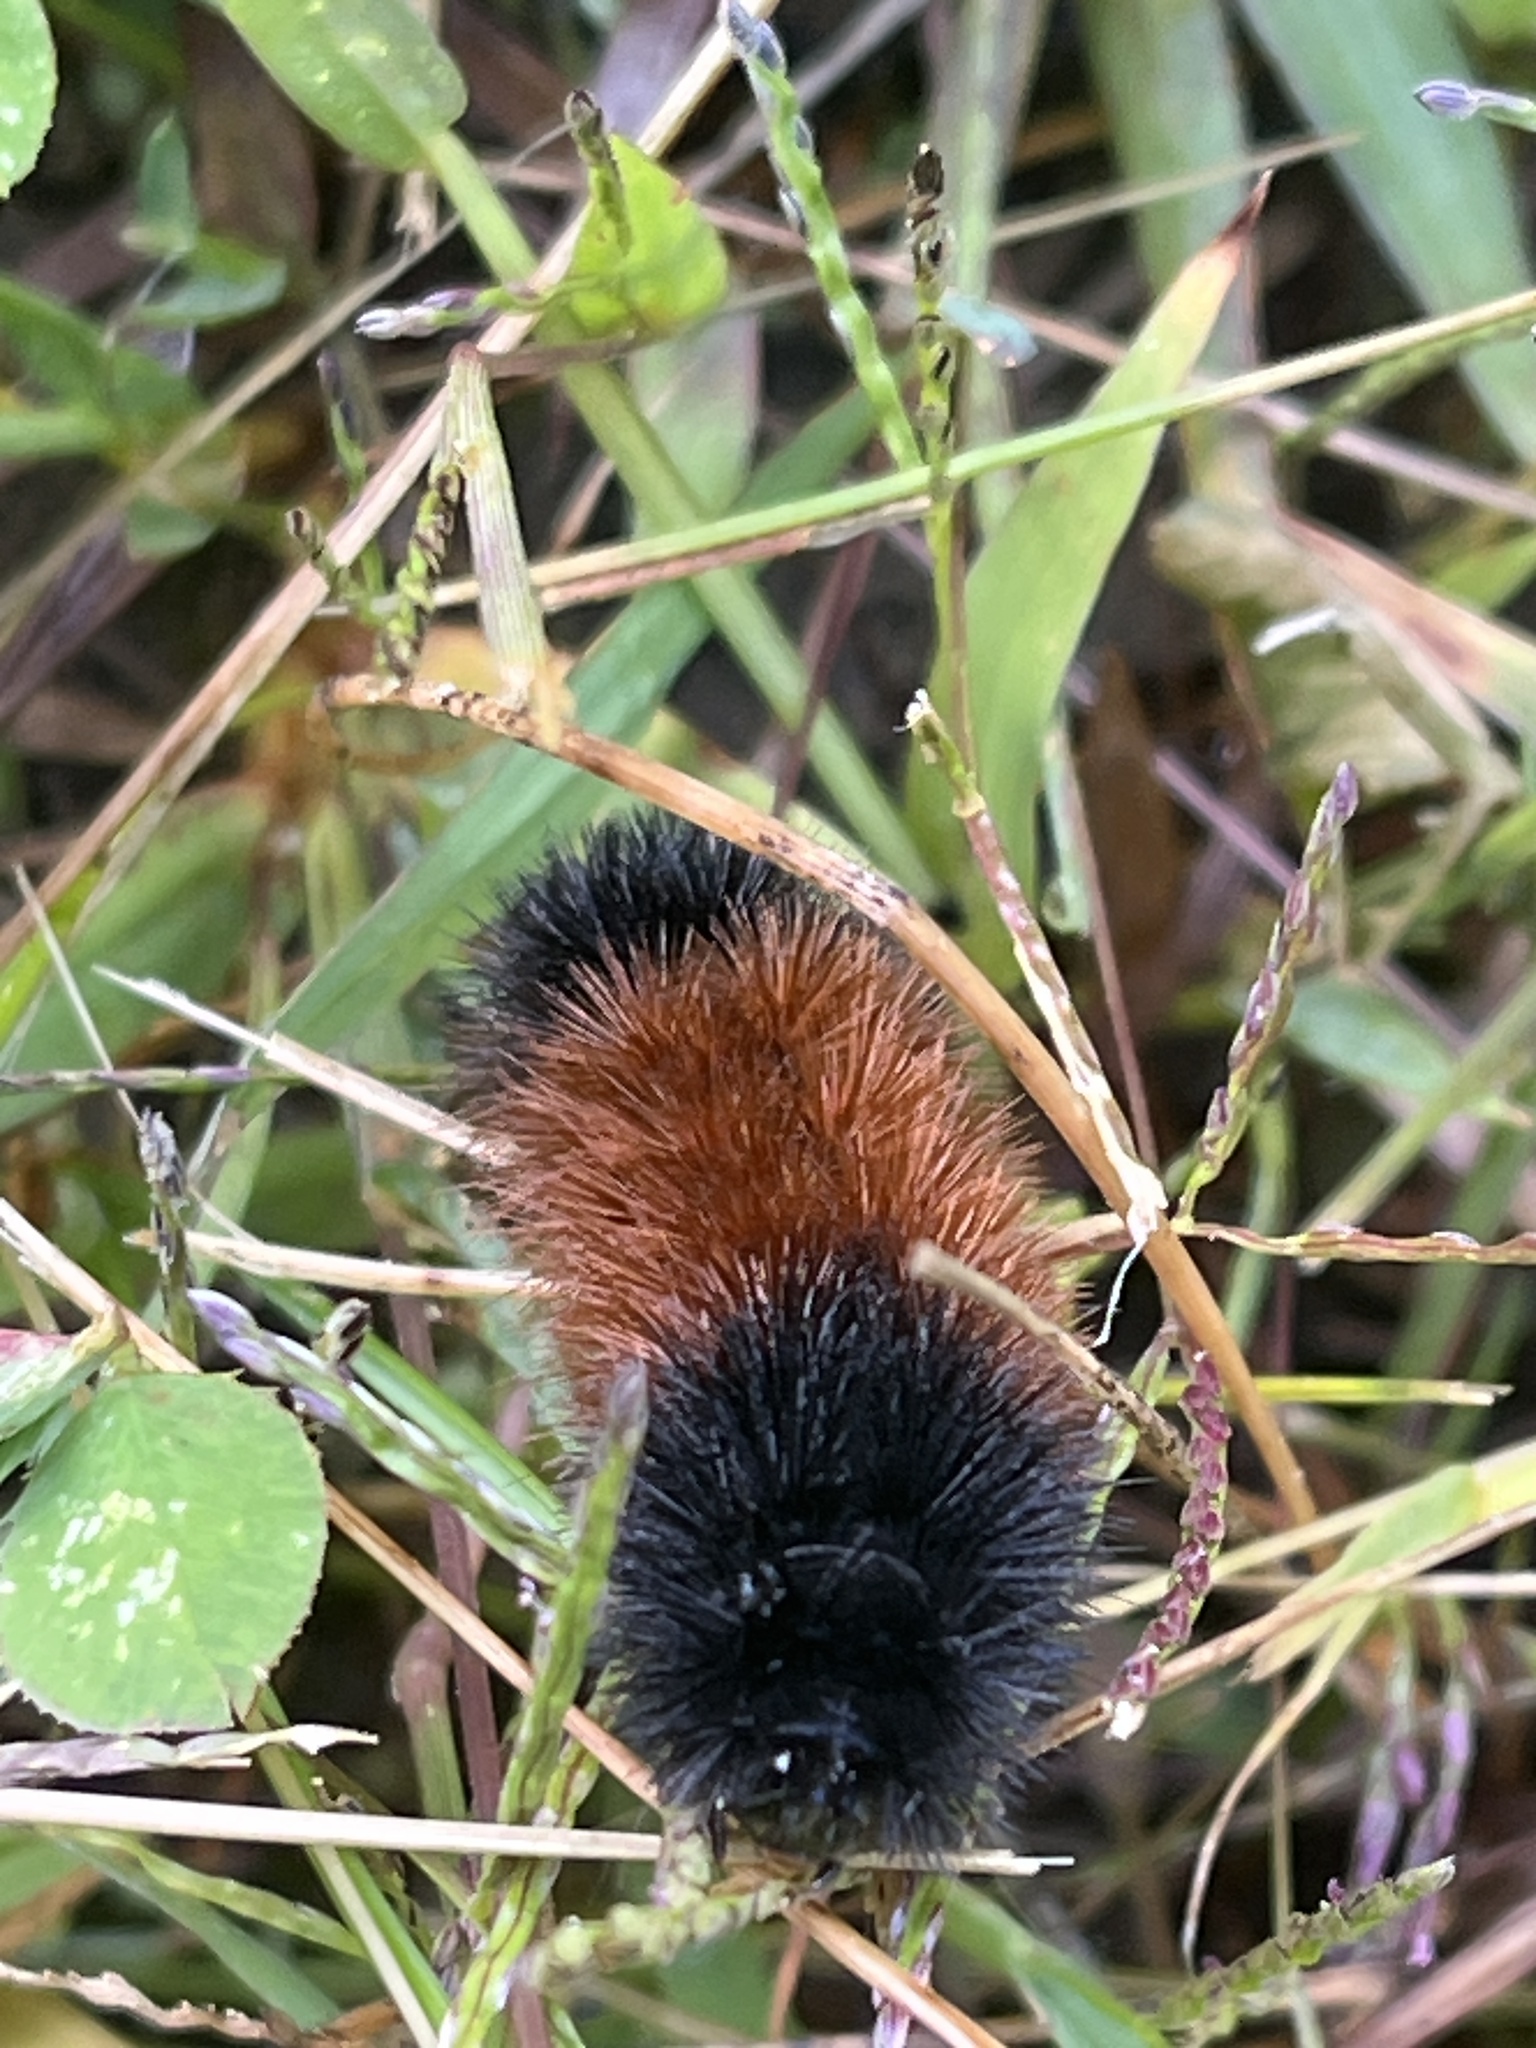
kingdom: Animalia
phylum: Arthropoda
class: Insecta
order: Lepidoptera
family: Erebidae
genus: Pyrrharctia
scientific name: Pyrrharctia isabella
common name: Isabella tiger moth
